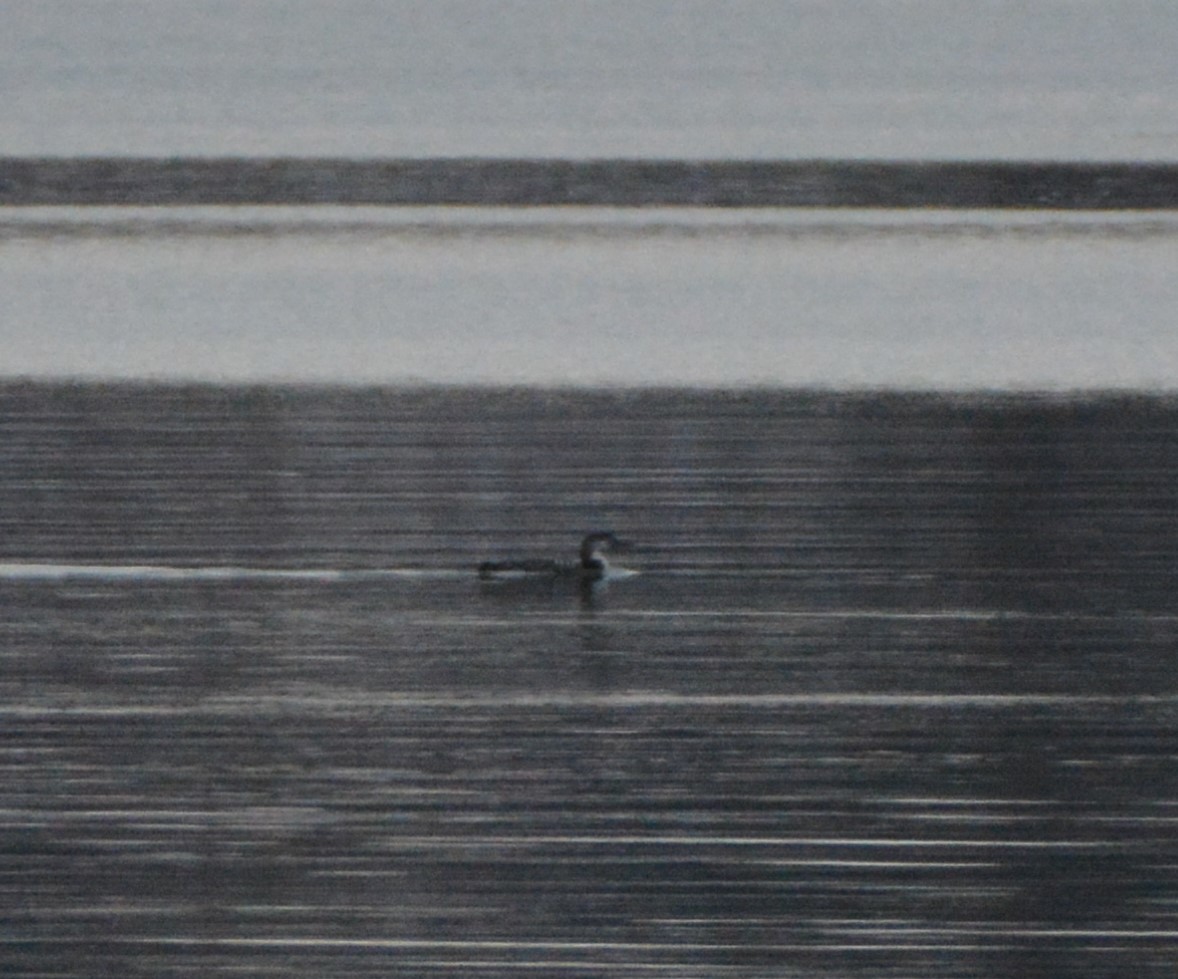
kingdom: Animalia
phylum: Chordata
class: Aves
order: Gaviiformes
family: Gaviidae
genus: Gavia
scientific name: Gavia immer
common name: Common loon
